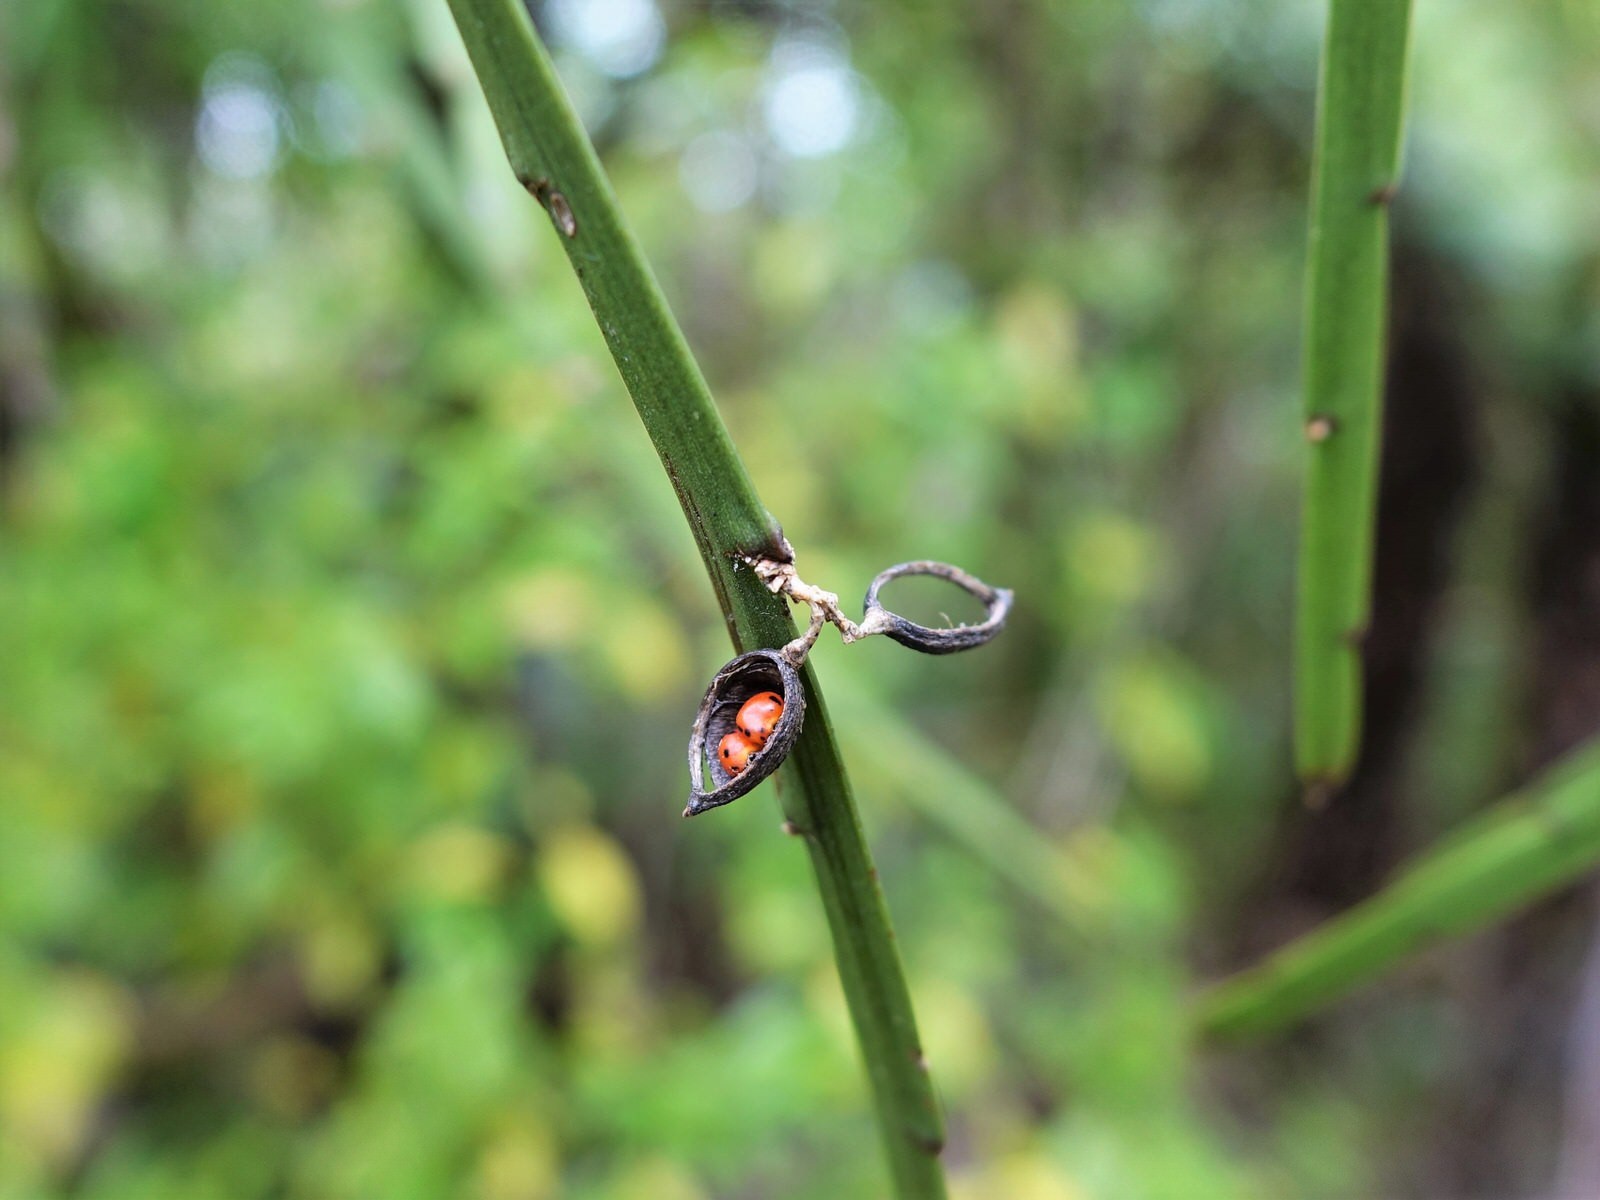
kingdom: Plantae
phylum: Tracheophyta
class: Magnoliopsida
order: Fabales
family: Fabaceae
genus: Carmichaelia
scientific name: Carmichaelia australis
